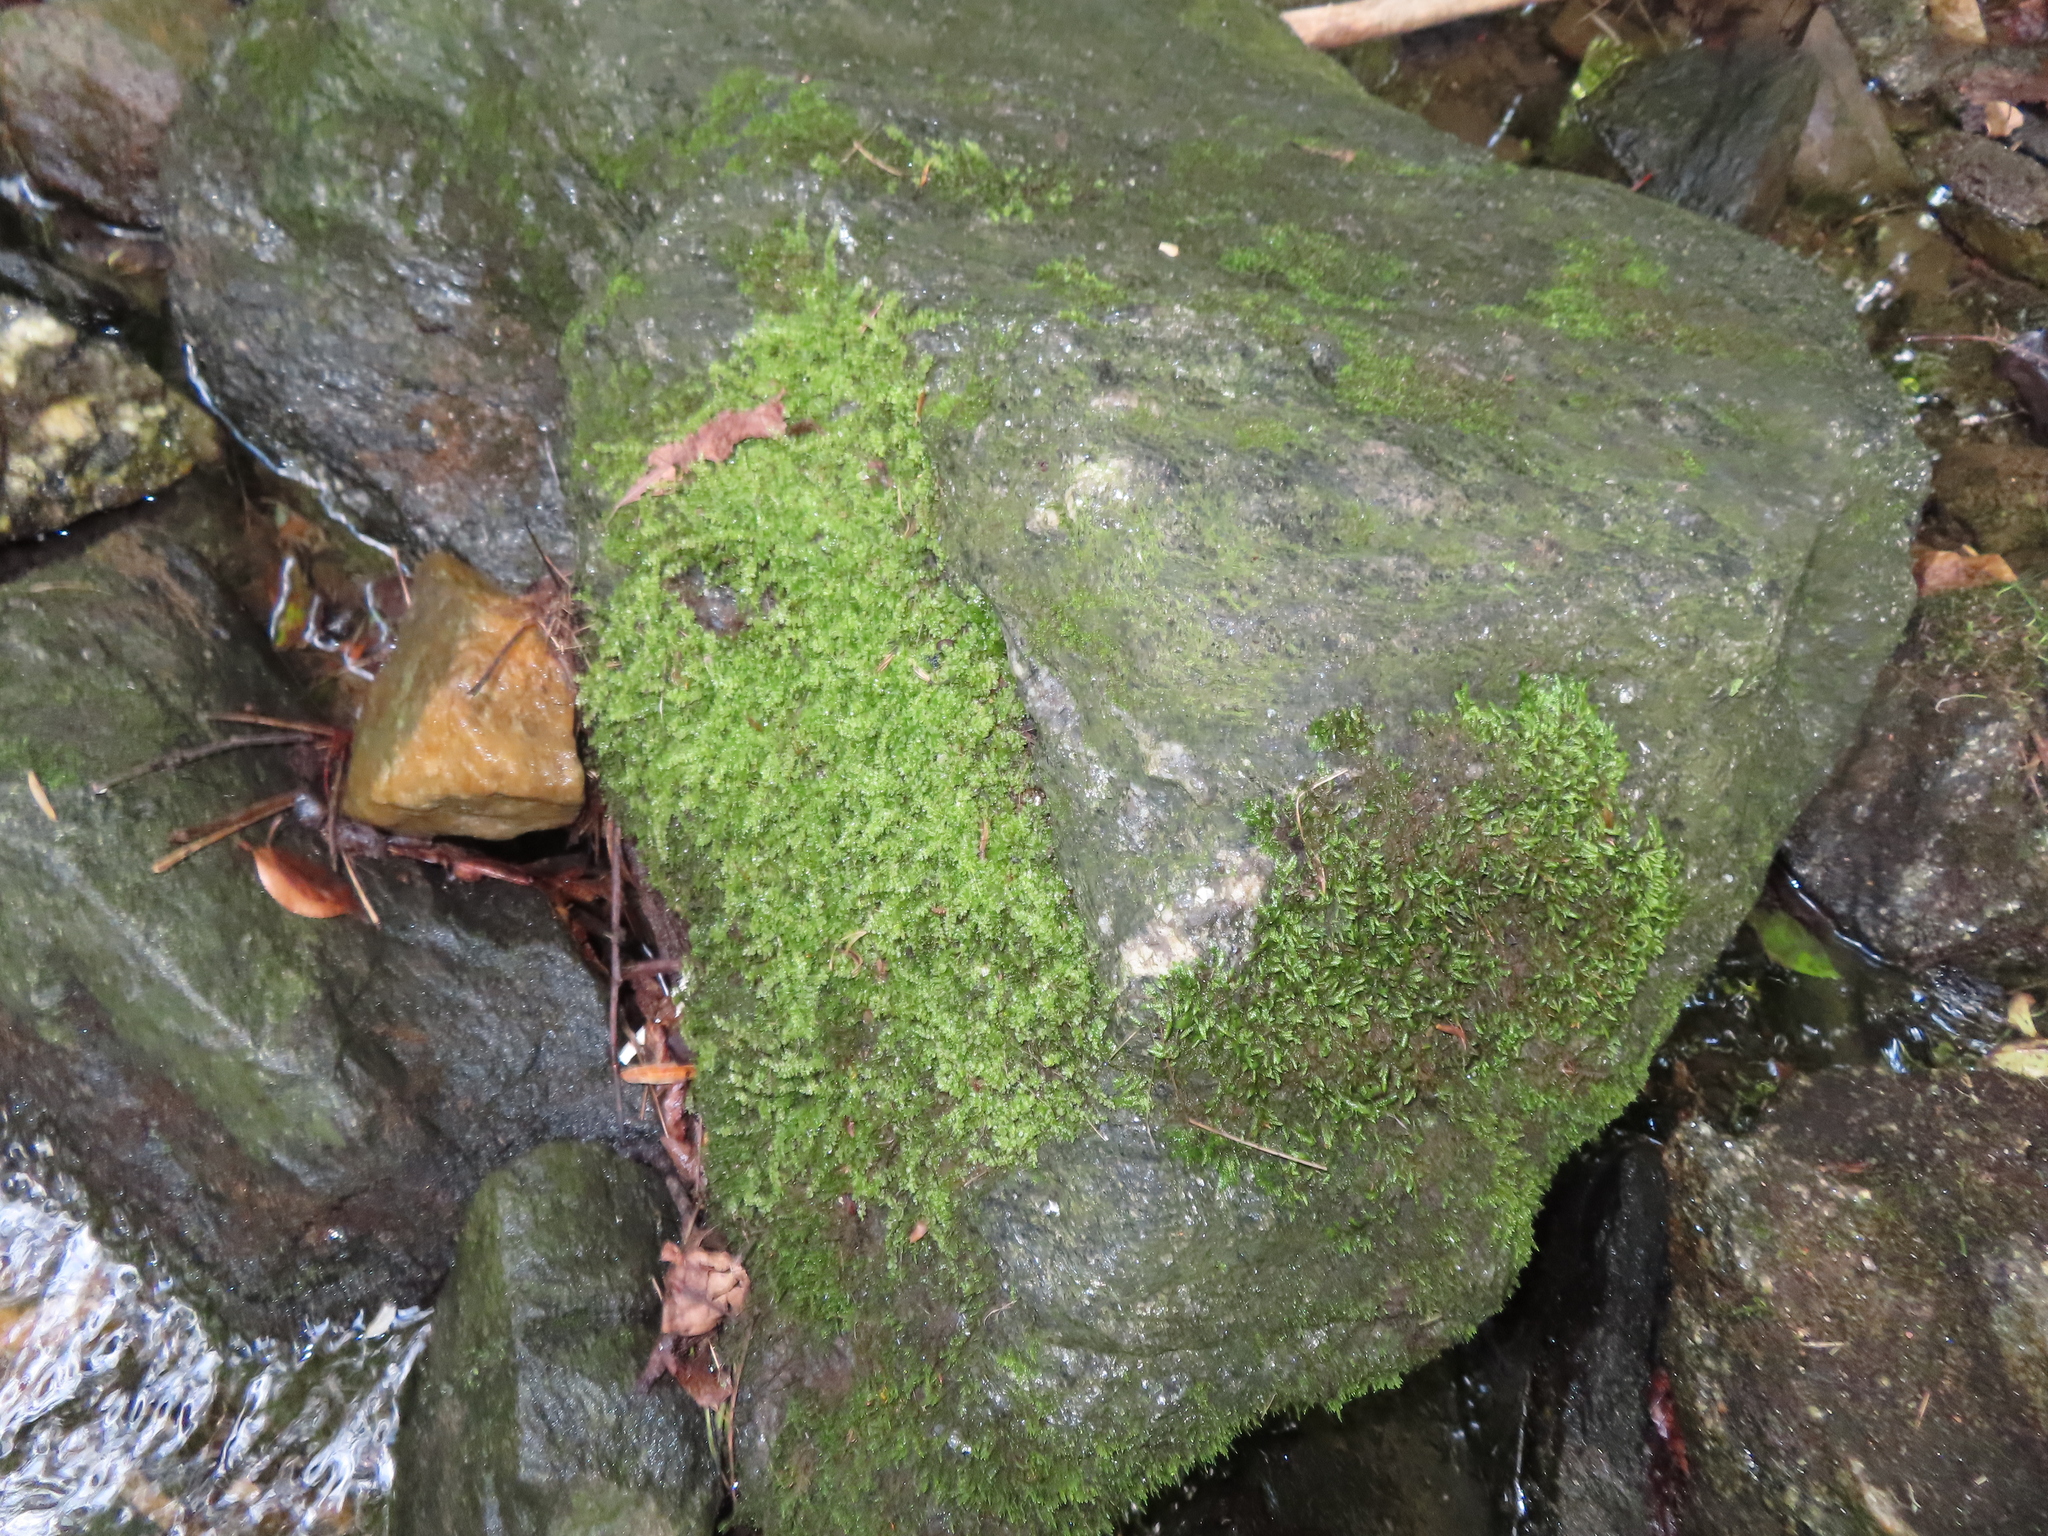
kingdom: Plantae
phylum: Bryophyta
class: Bryopsida
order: Bryales
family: Mniaceae
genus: Plagiomnium
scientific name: Plagiomnium cuspidatum
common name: Woodsy leafy moss
